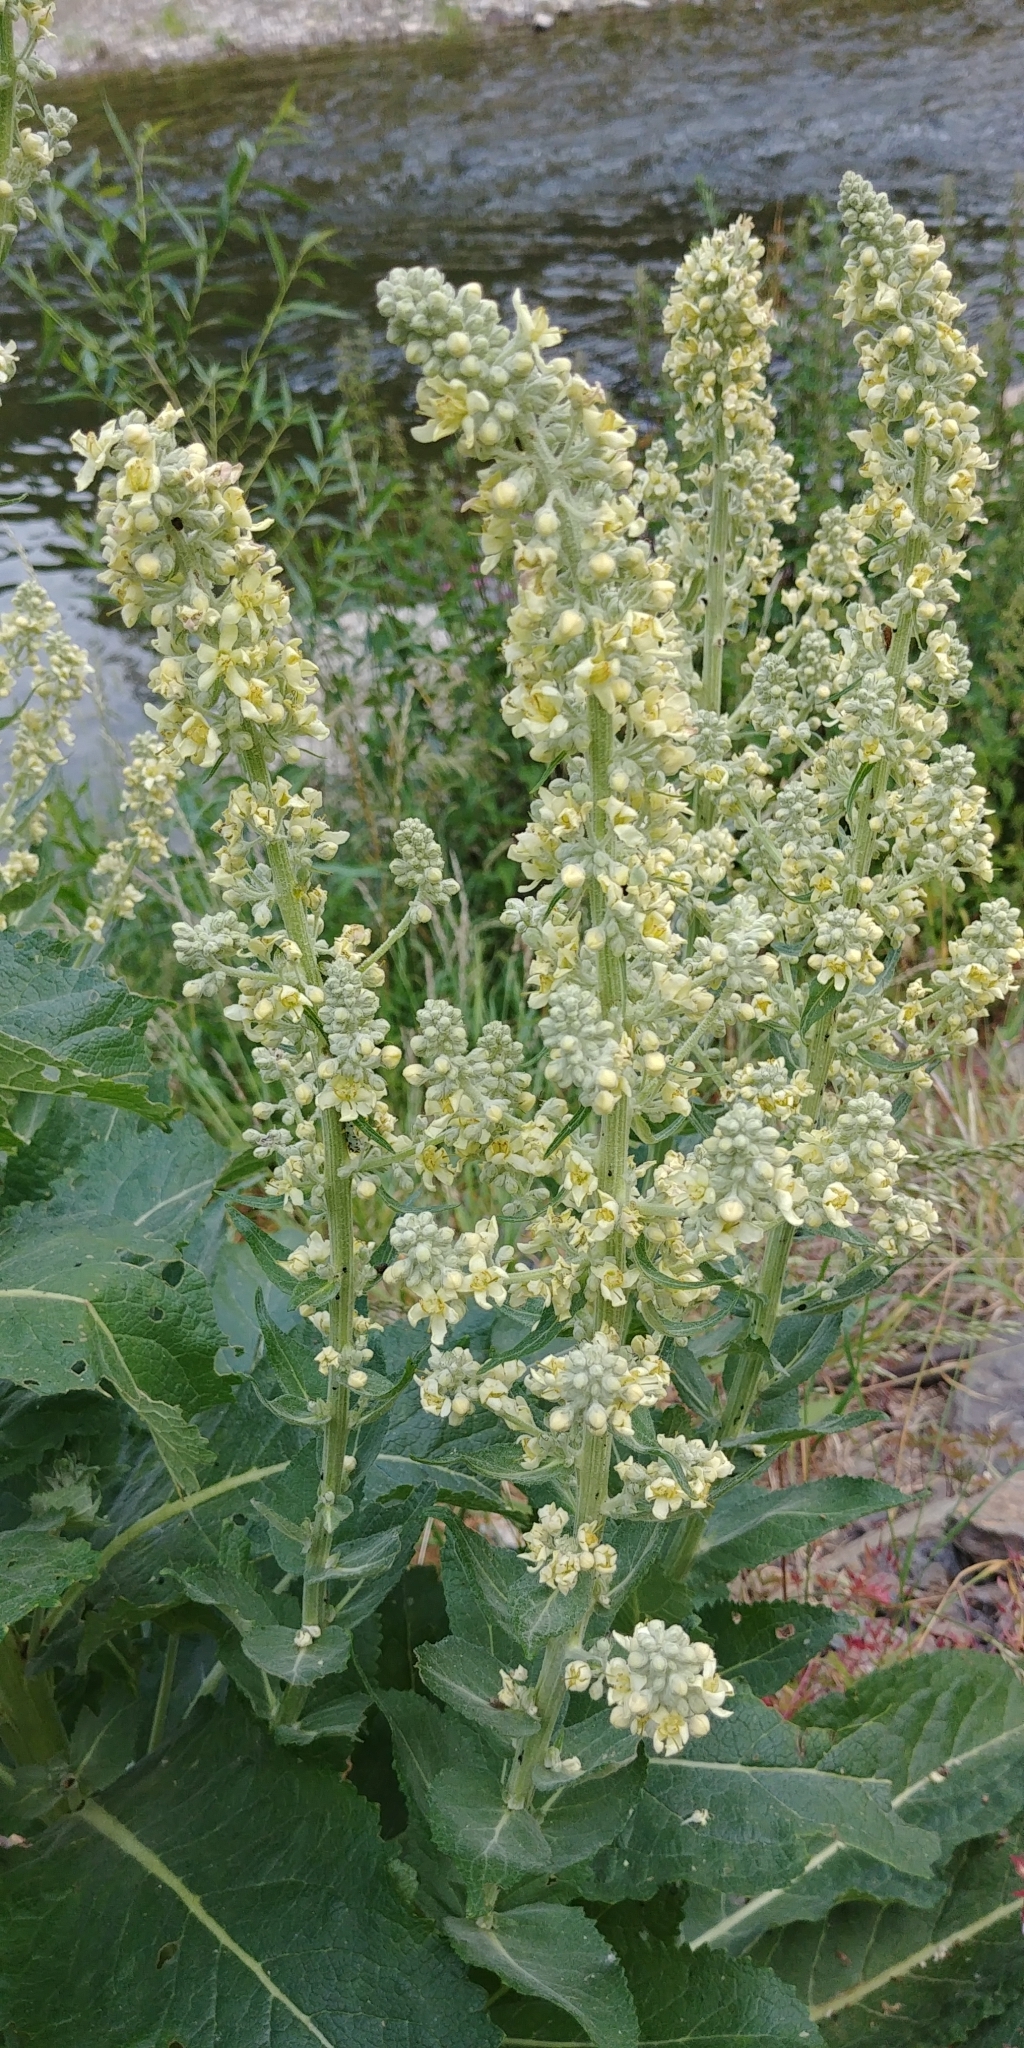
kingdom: Plantae
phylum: Tracheophyta
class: Magnoliopsida
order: Lamiales
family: Scrophulariaceae
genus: Verbascum
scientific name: Verbascum lychnitis
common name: White mullein
